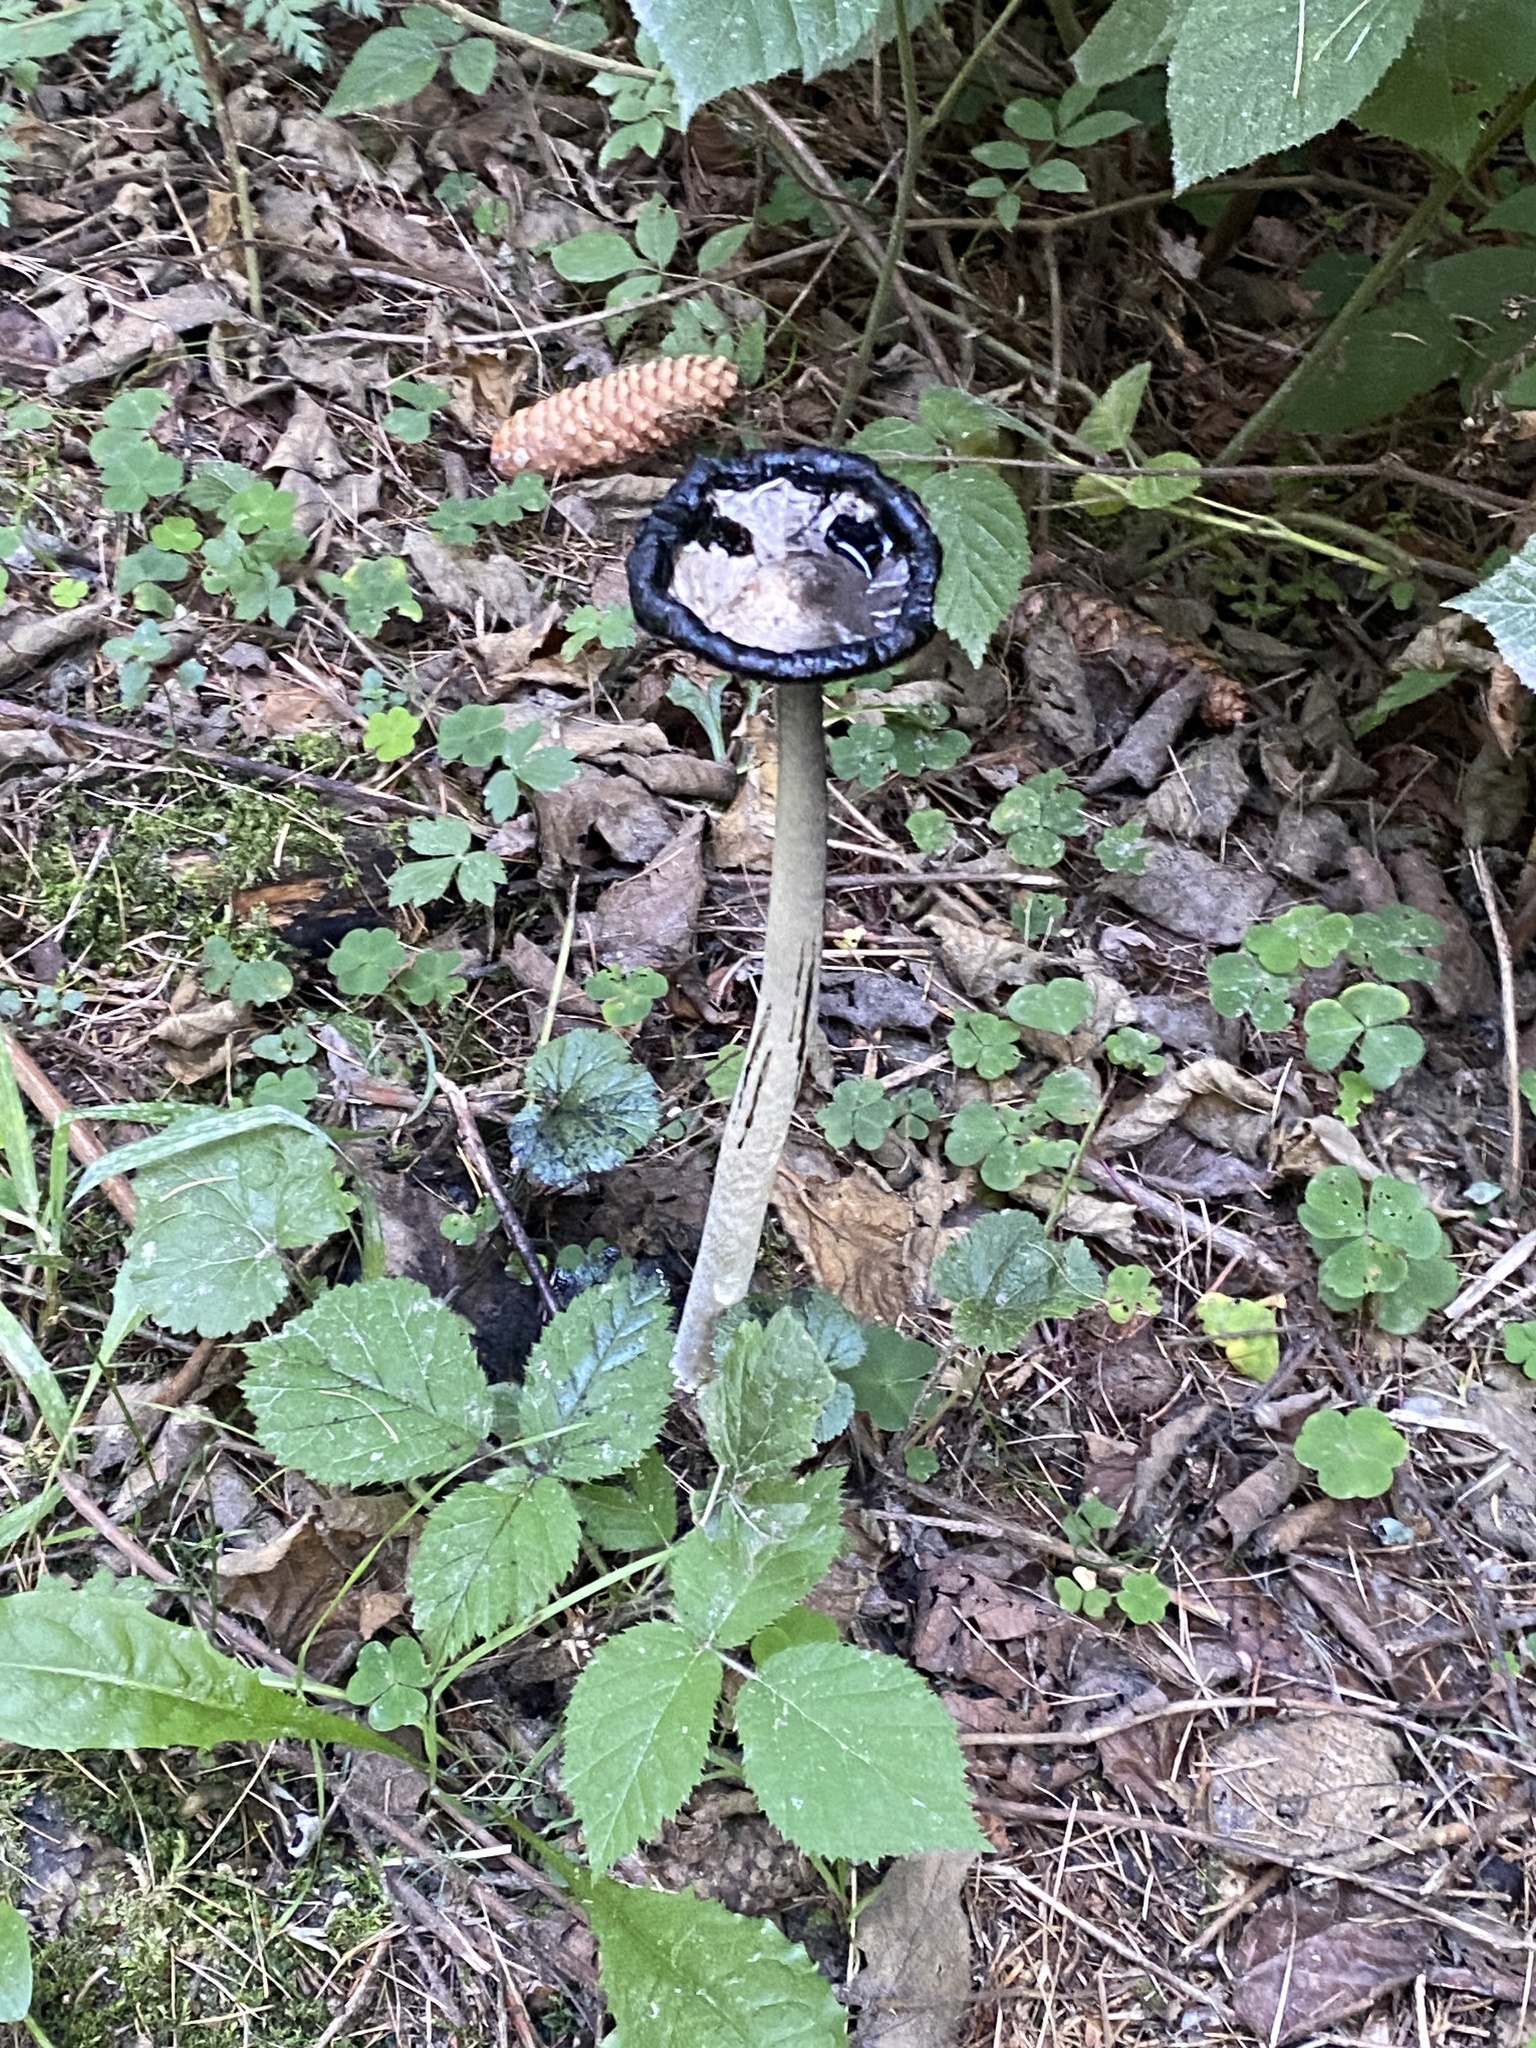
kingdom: Fungi
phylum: Basidiomycota
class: Agaricomycetes
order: Agaricales
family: Agaricaceae
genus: Coprinus
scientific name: Coprinus comatus
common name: Lawyer's wig
